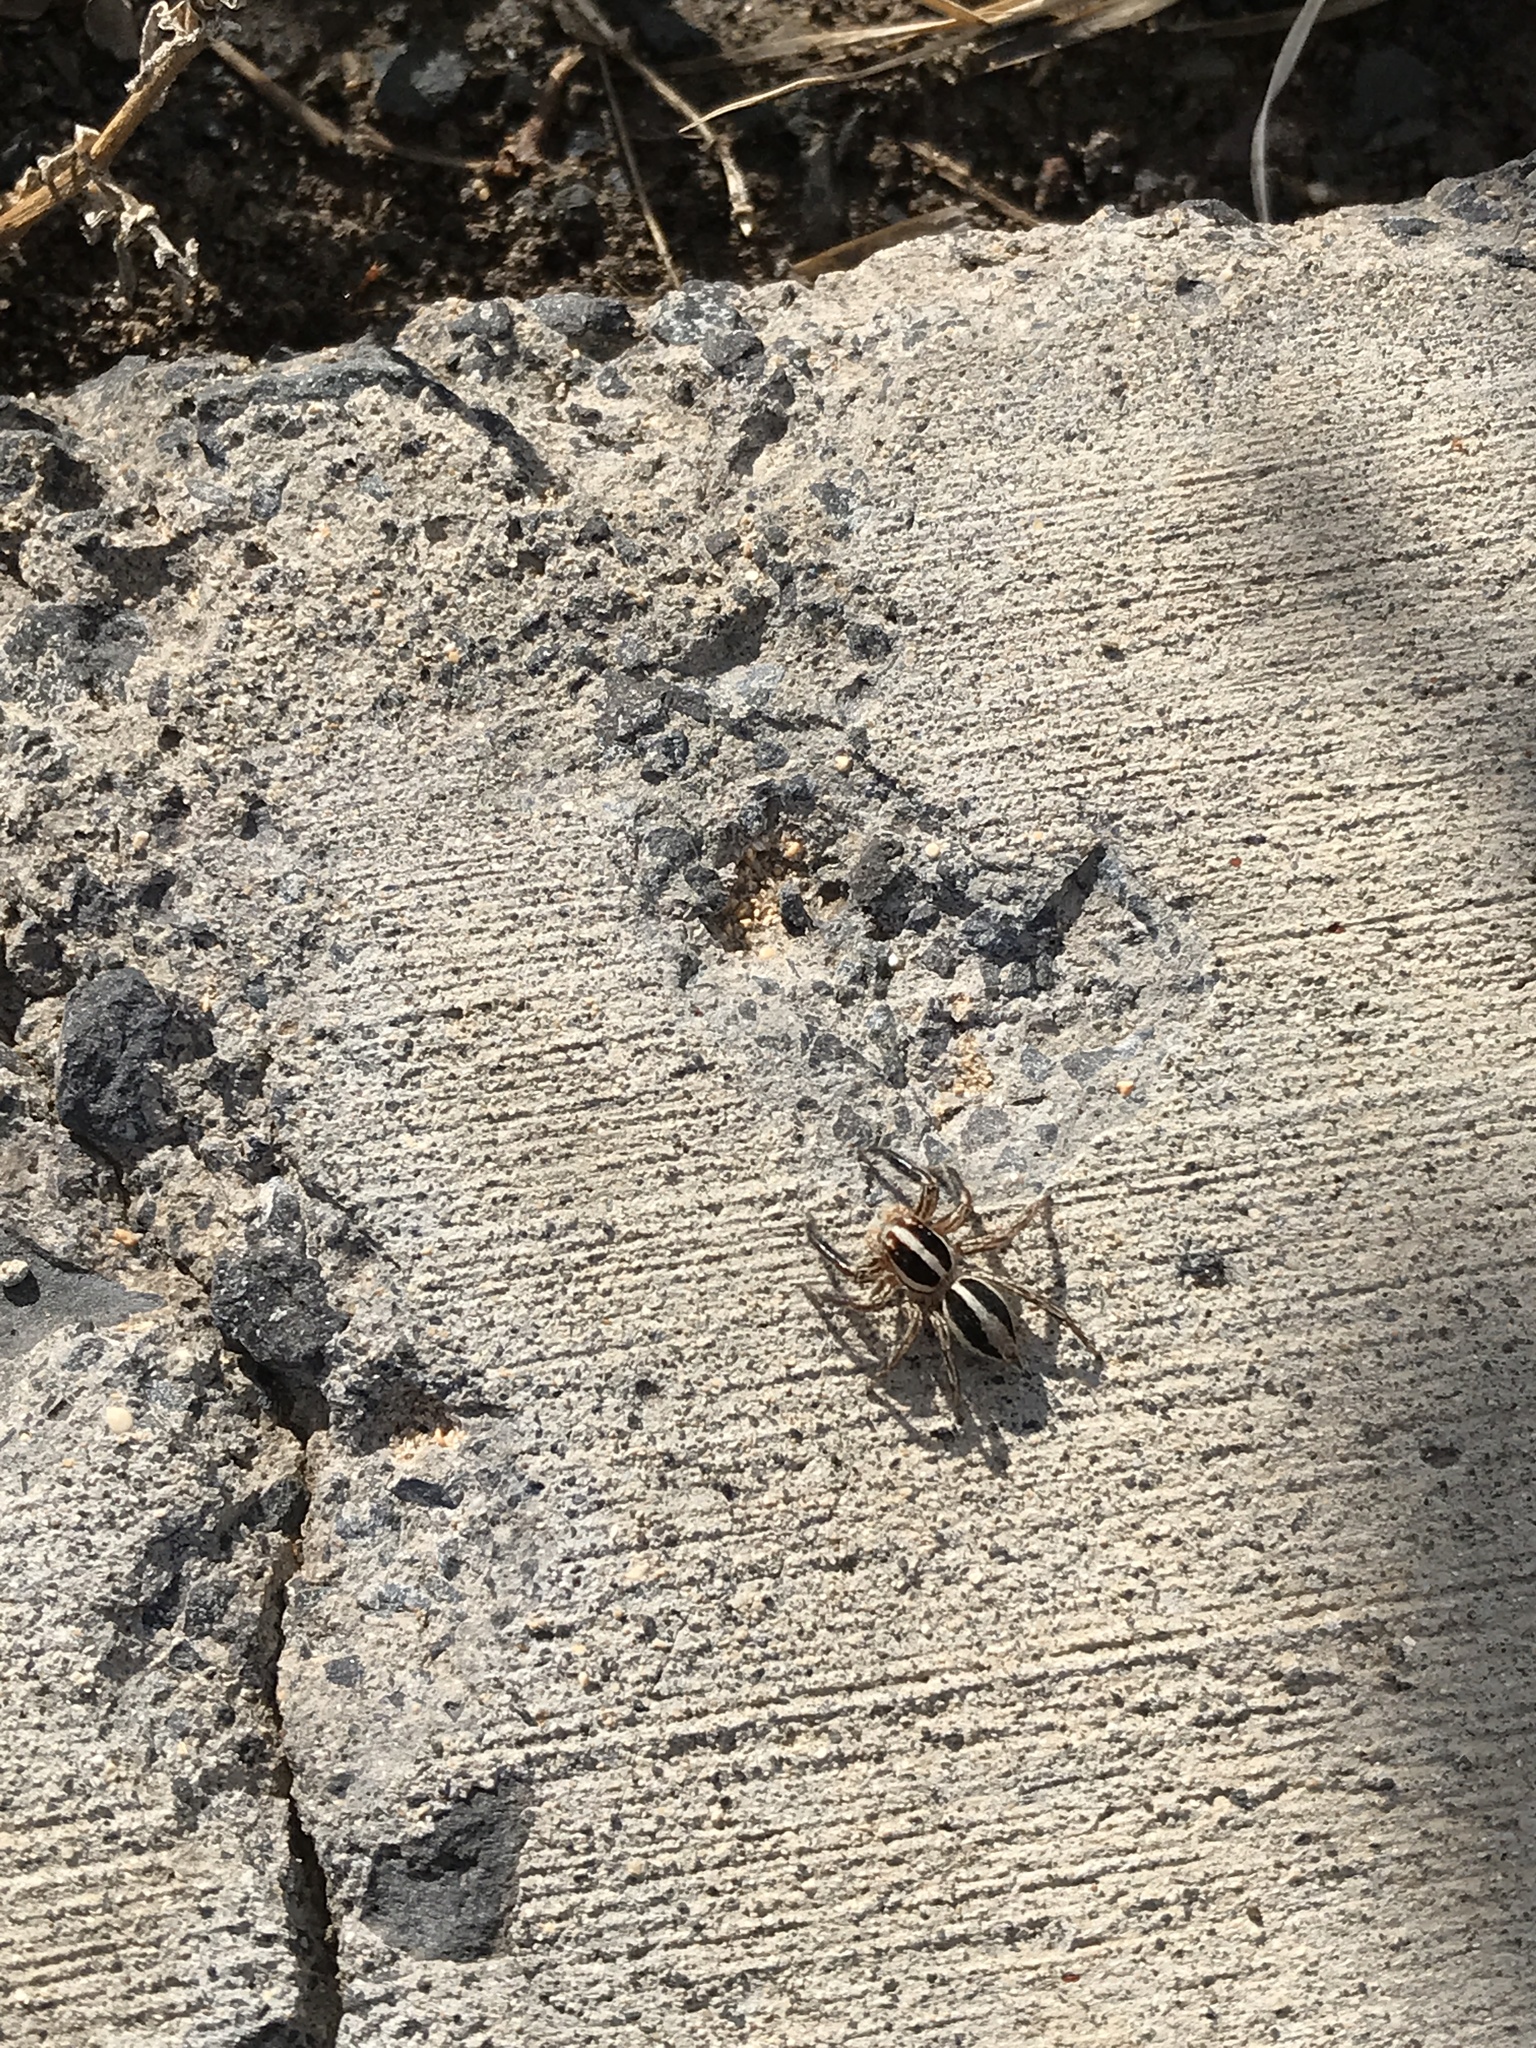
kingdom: Animalia
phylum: Arthropoda
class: Arachnida
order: Araneae
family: Salticidae
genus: Plexippus
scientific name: Plexippus paykulli
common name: Pantropical jumper
